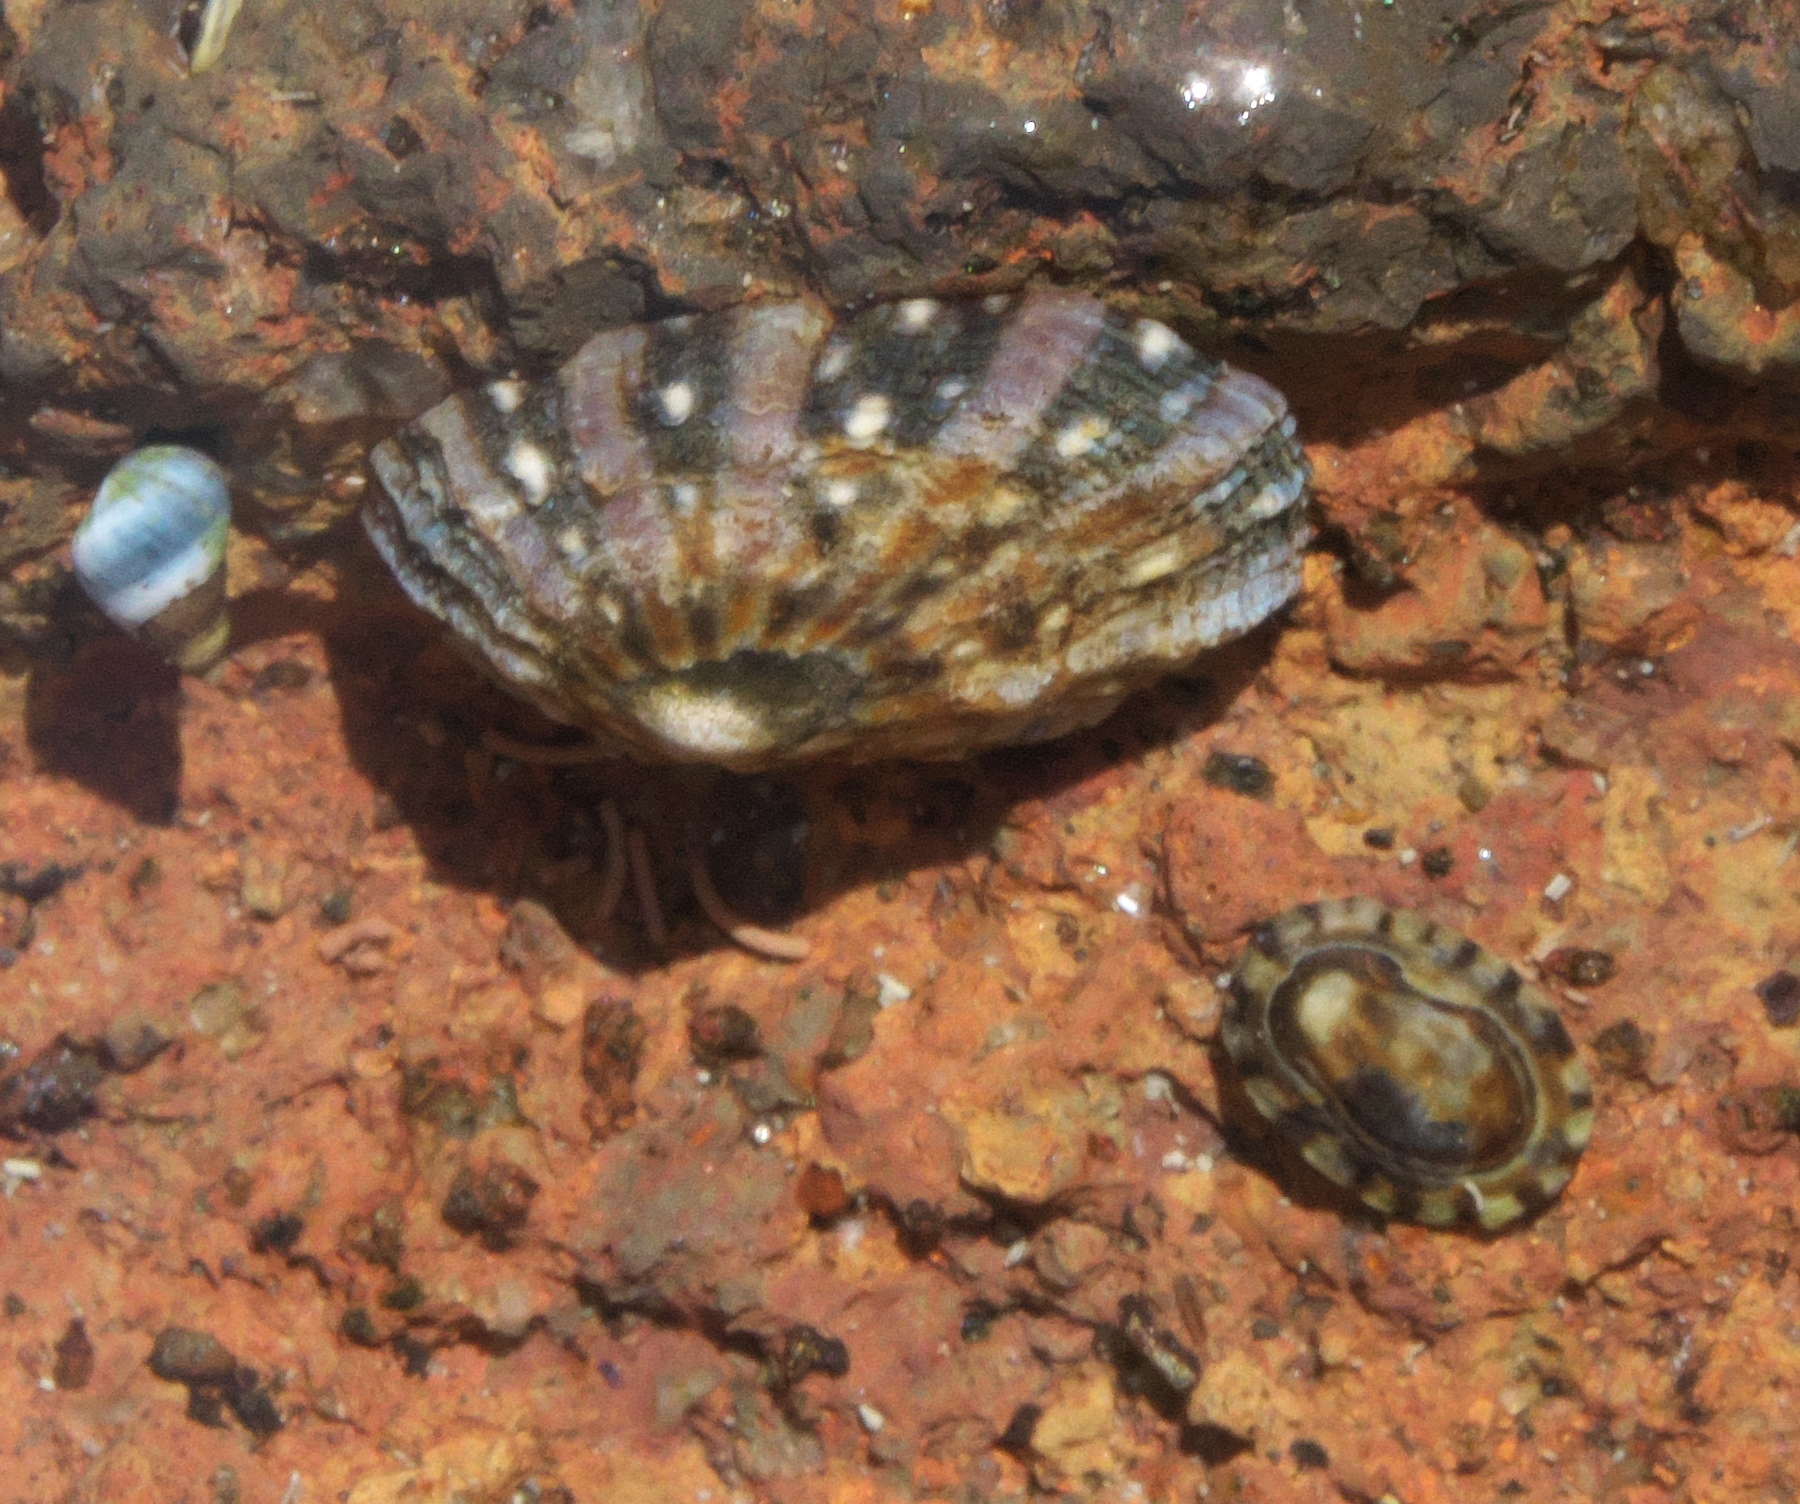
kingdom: Animalia
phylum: Mollusca
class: Gastropoda
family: Lottiidae
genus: Notoacmea
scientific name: Notoacmea parviconoidea
